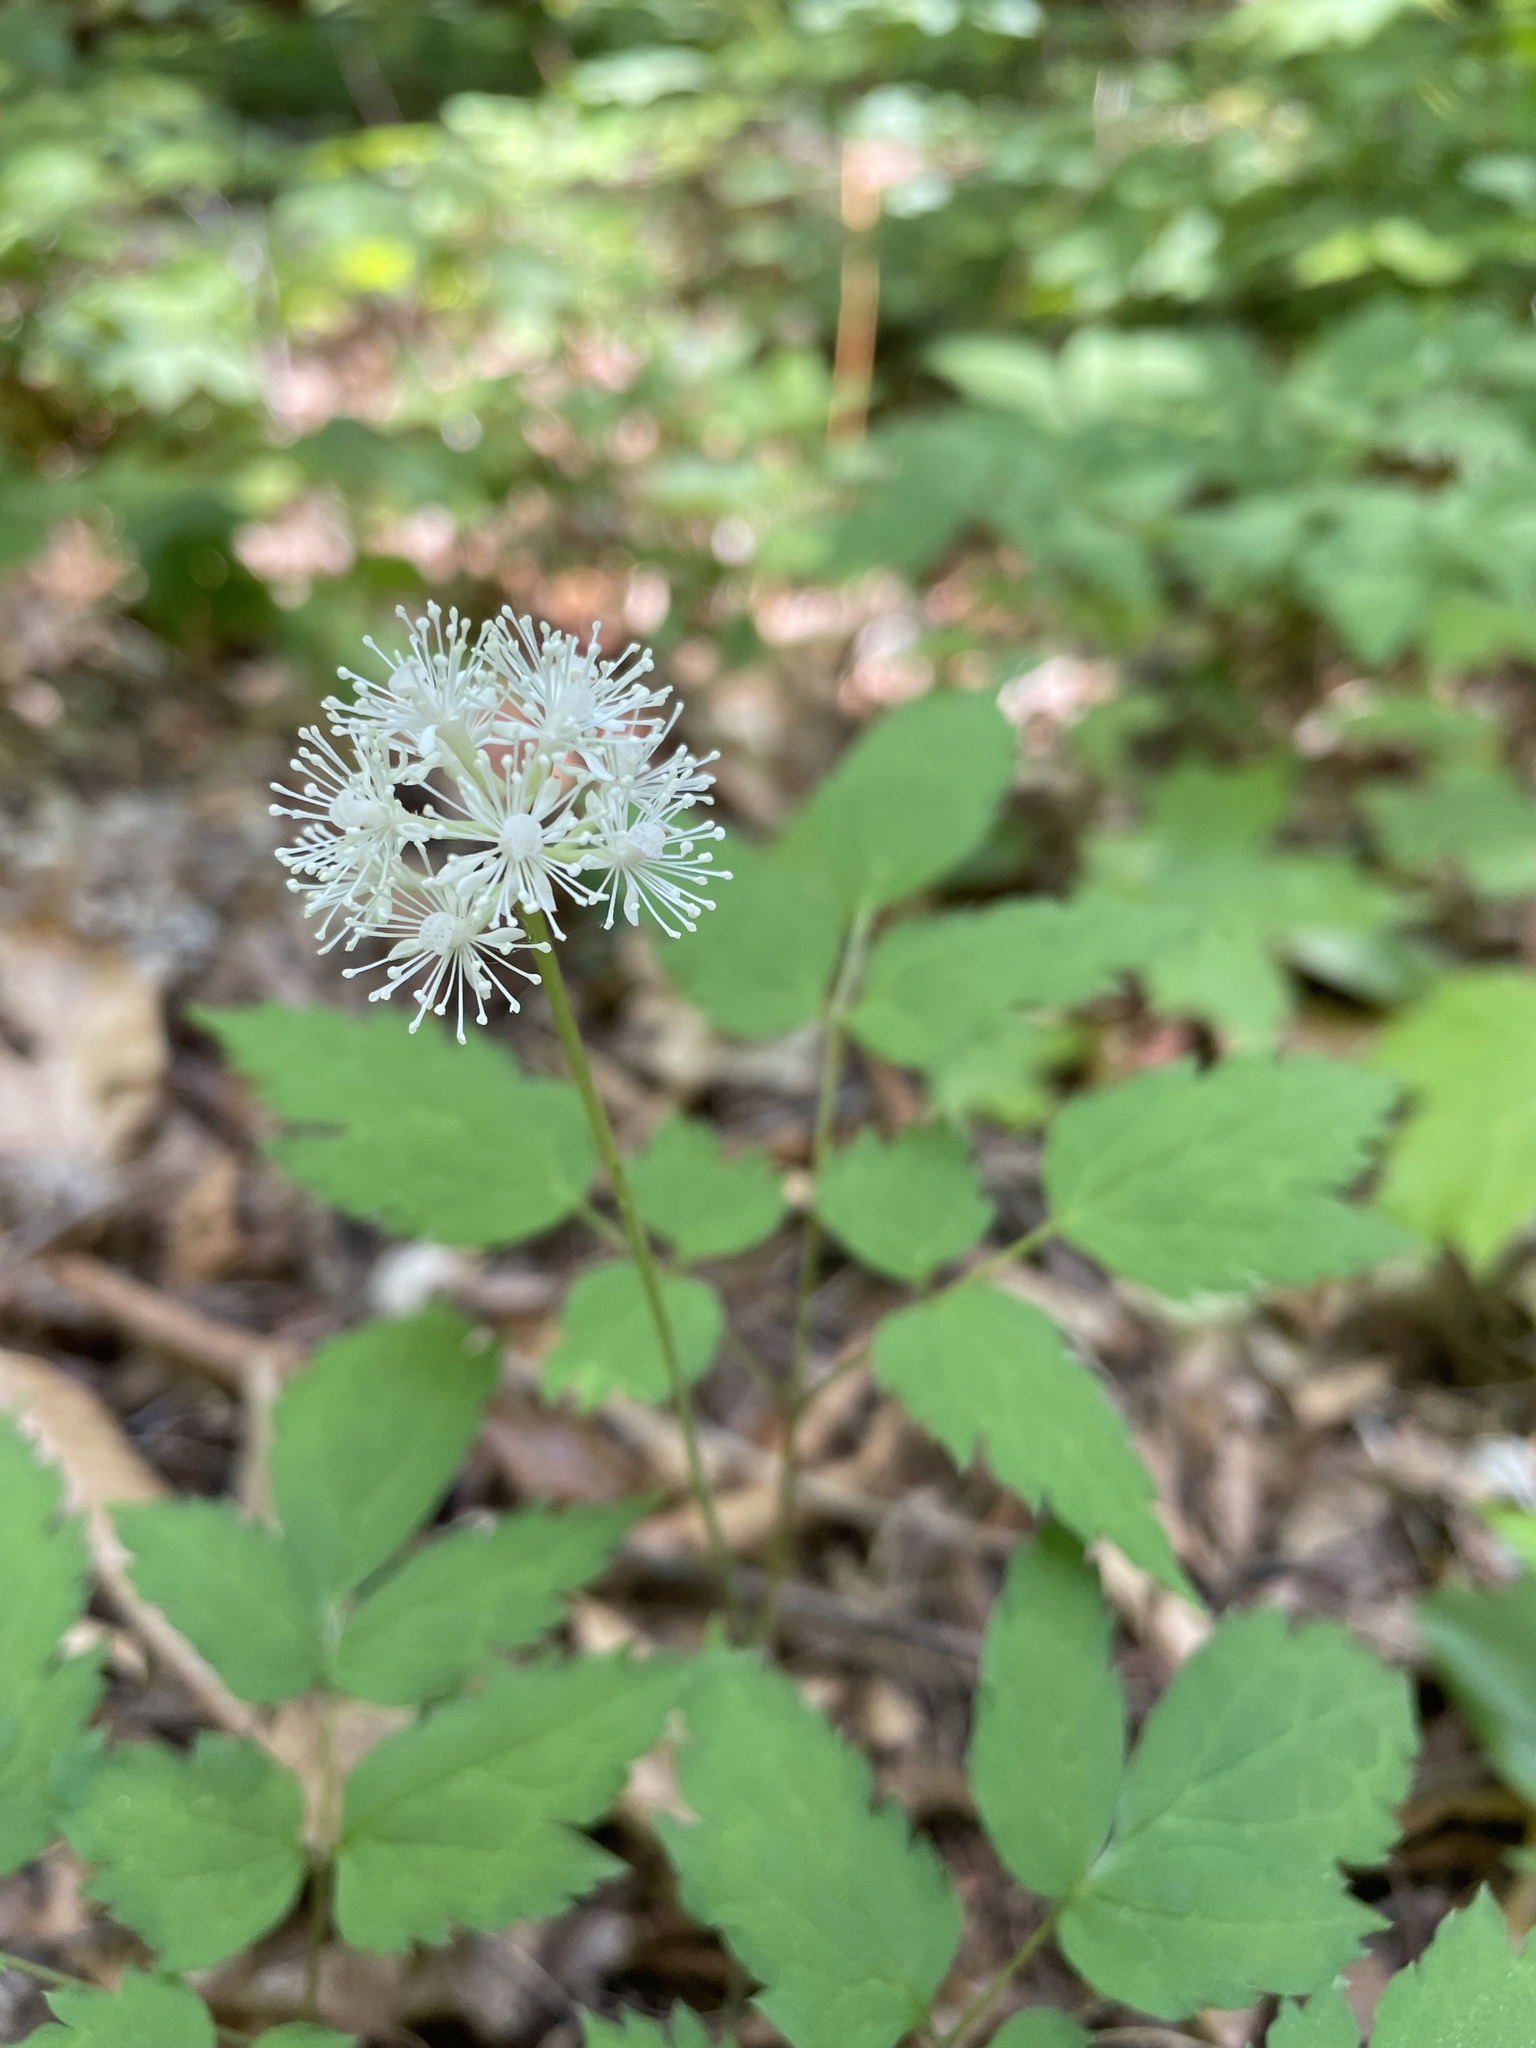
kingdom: Plantae
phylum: Tracheophyta
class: Magnoliopsida
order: Ranunculales
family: Ranunculaceae
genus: Actaea
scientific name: Actaea pachypoda
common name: Doll's-eyes
